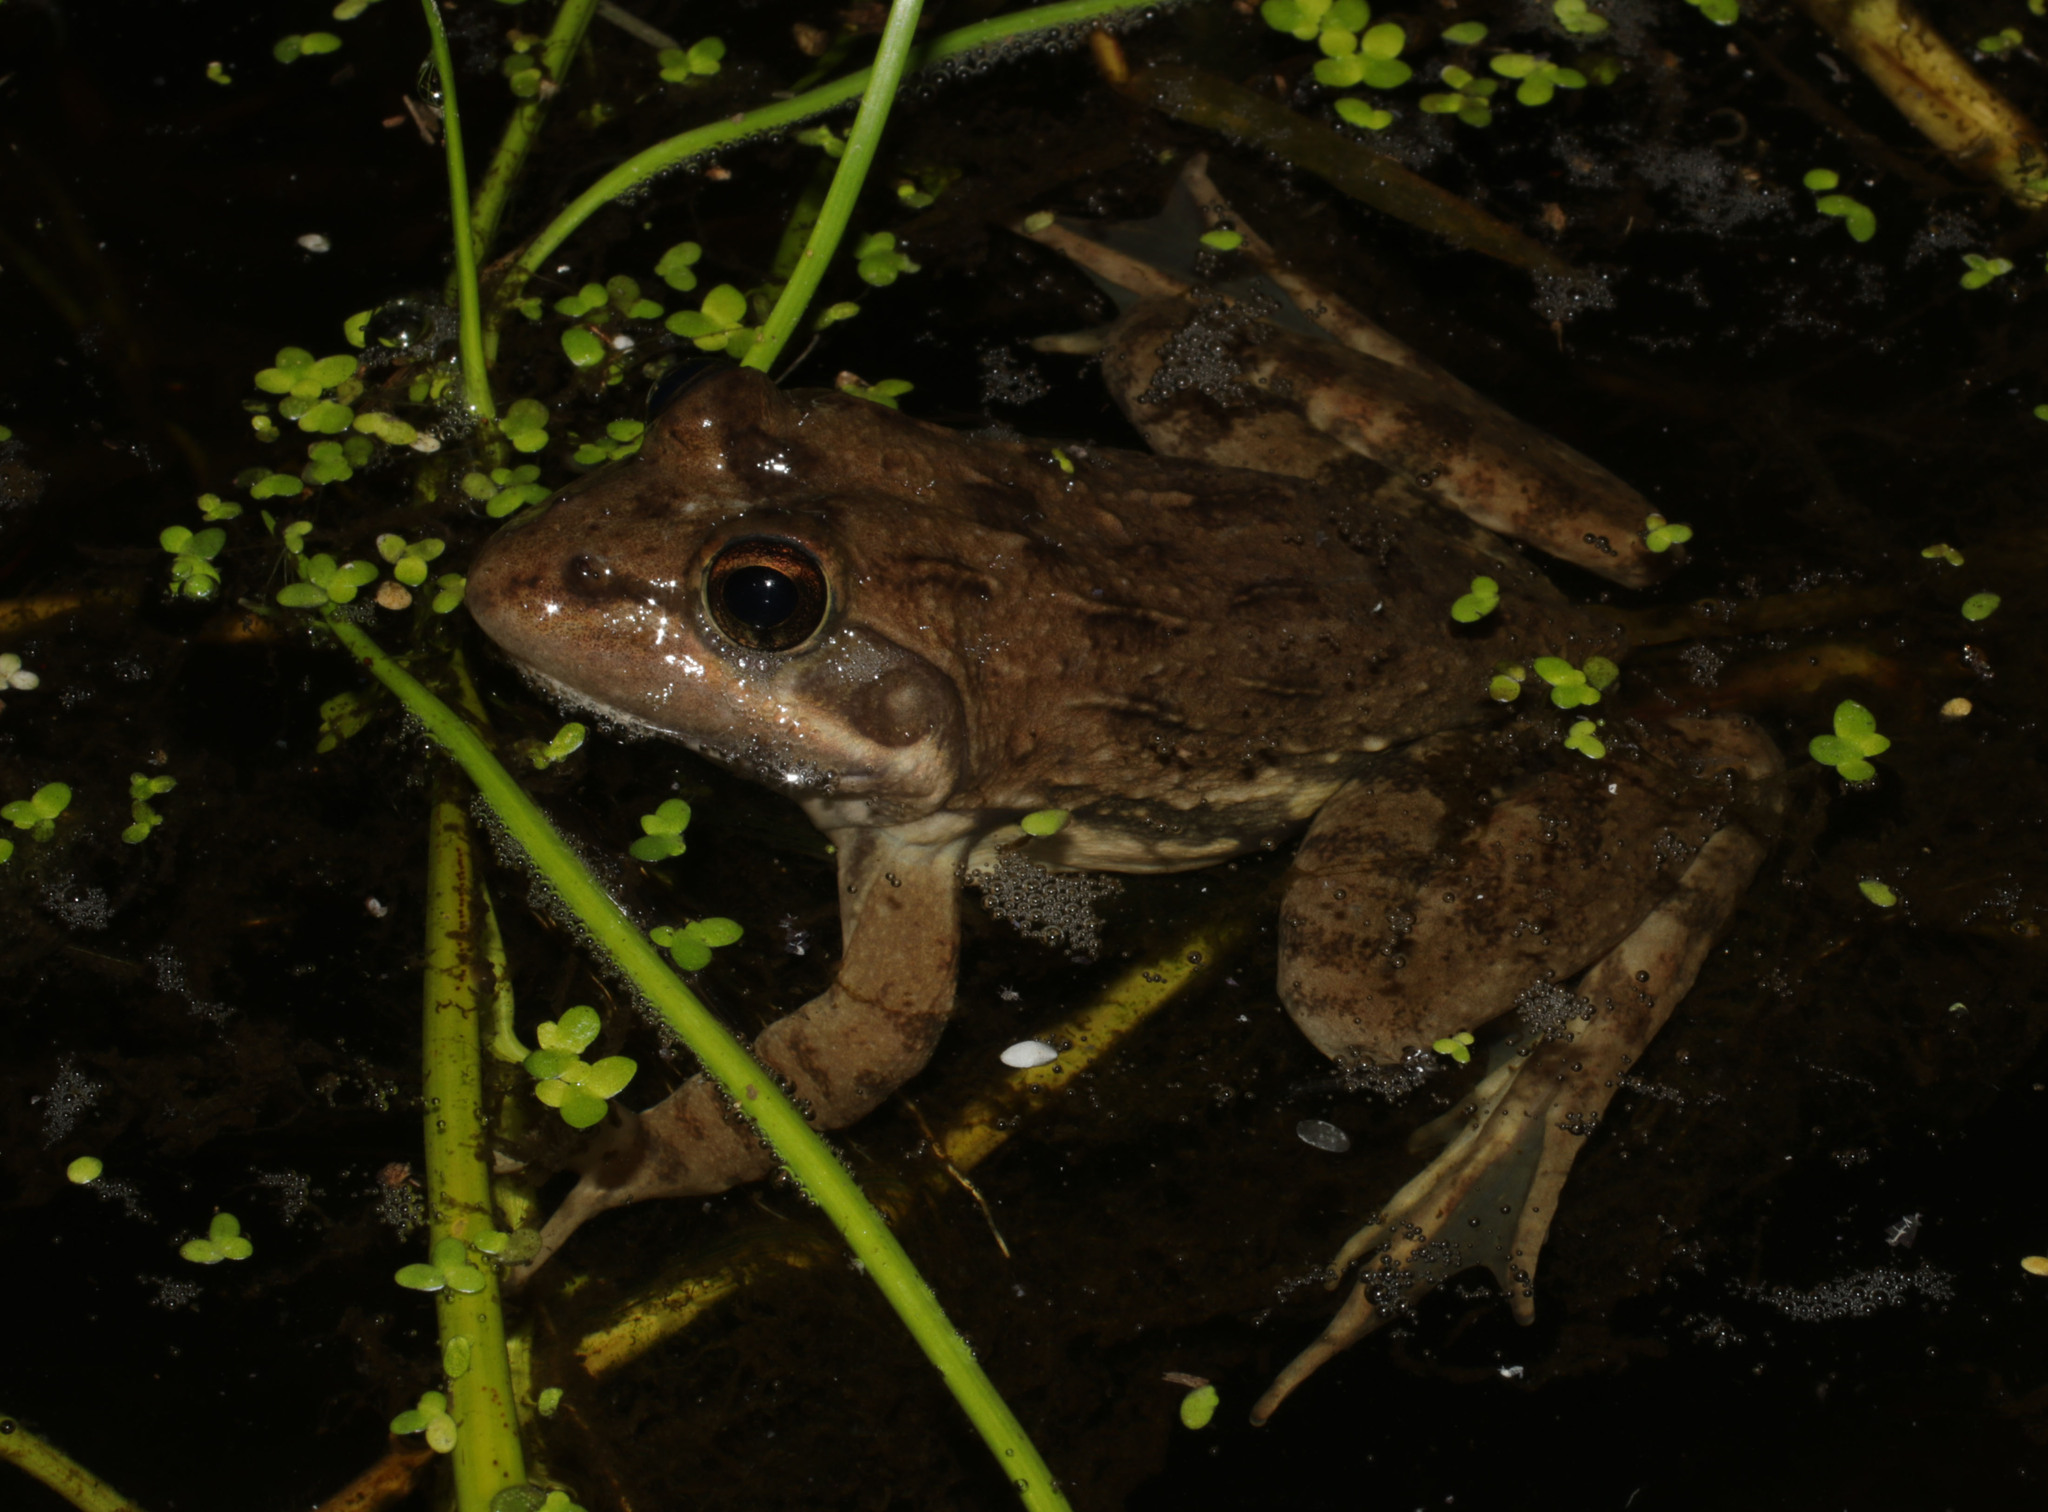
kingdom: Animalia
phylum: Chordata
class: Amphibia
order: Anura
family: Pyxicephalidae
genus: Amietia
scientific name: Amietia fuscigula
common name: Cape rana
